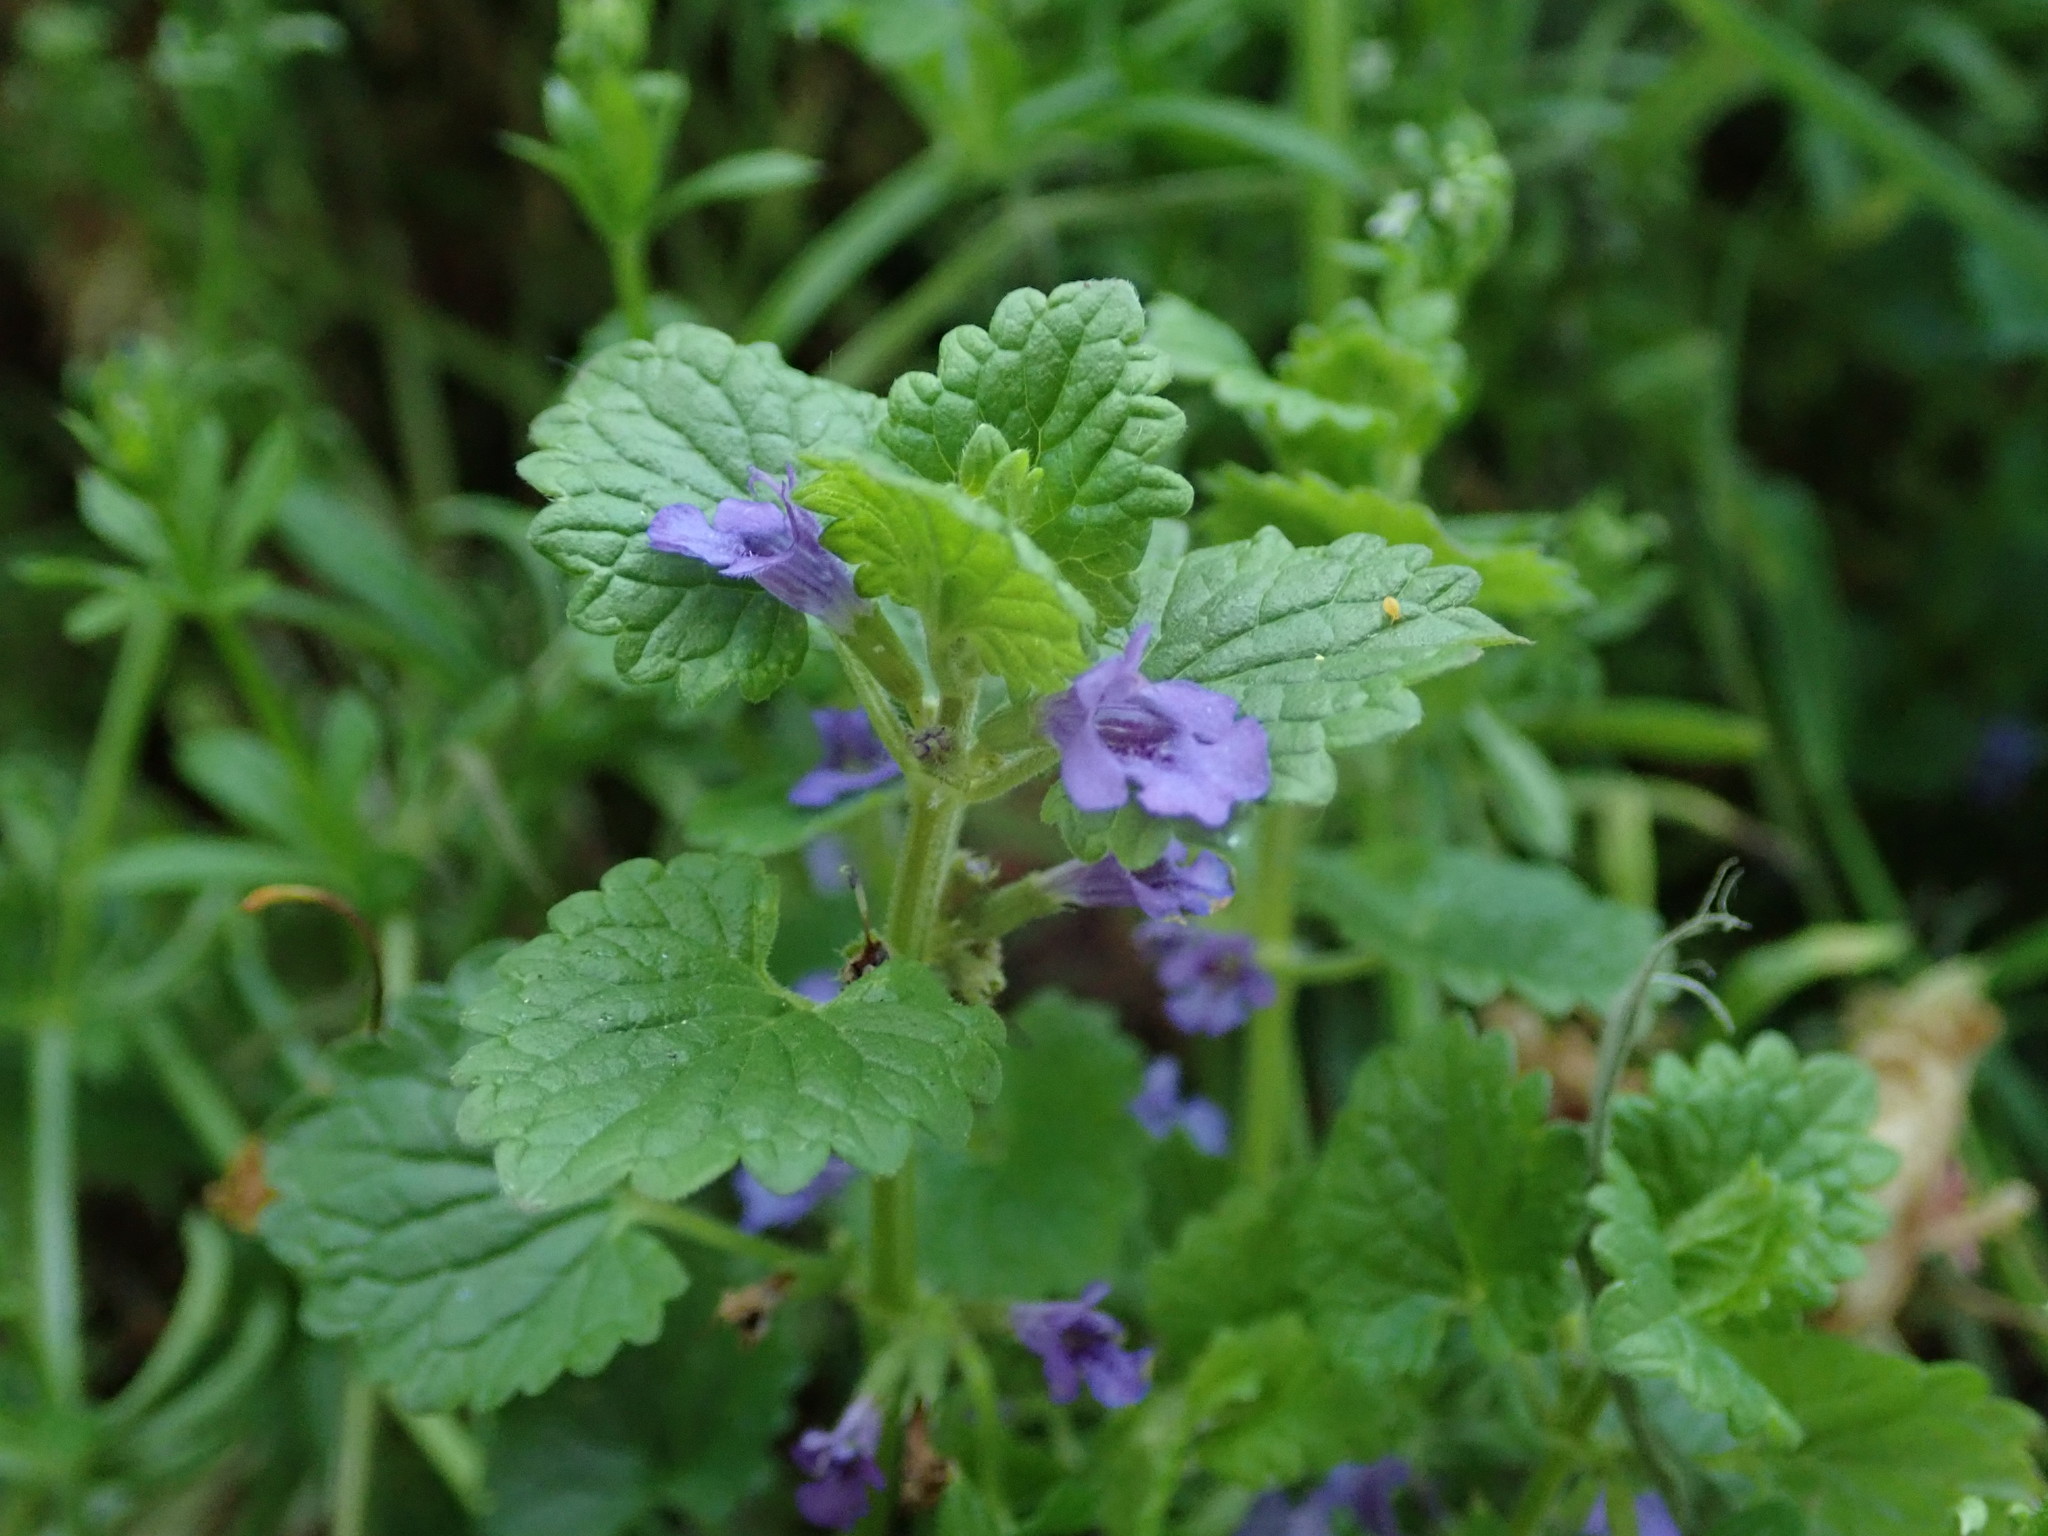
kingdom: Plantae
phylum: Tracheophyta
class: Magnoliopsida
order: Lamiales
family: Lamiaceae
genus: Glechoma
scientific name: Glechoma hederacea
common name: Ground ivy
